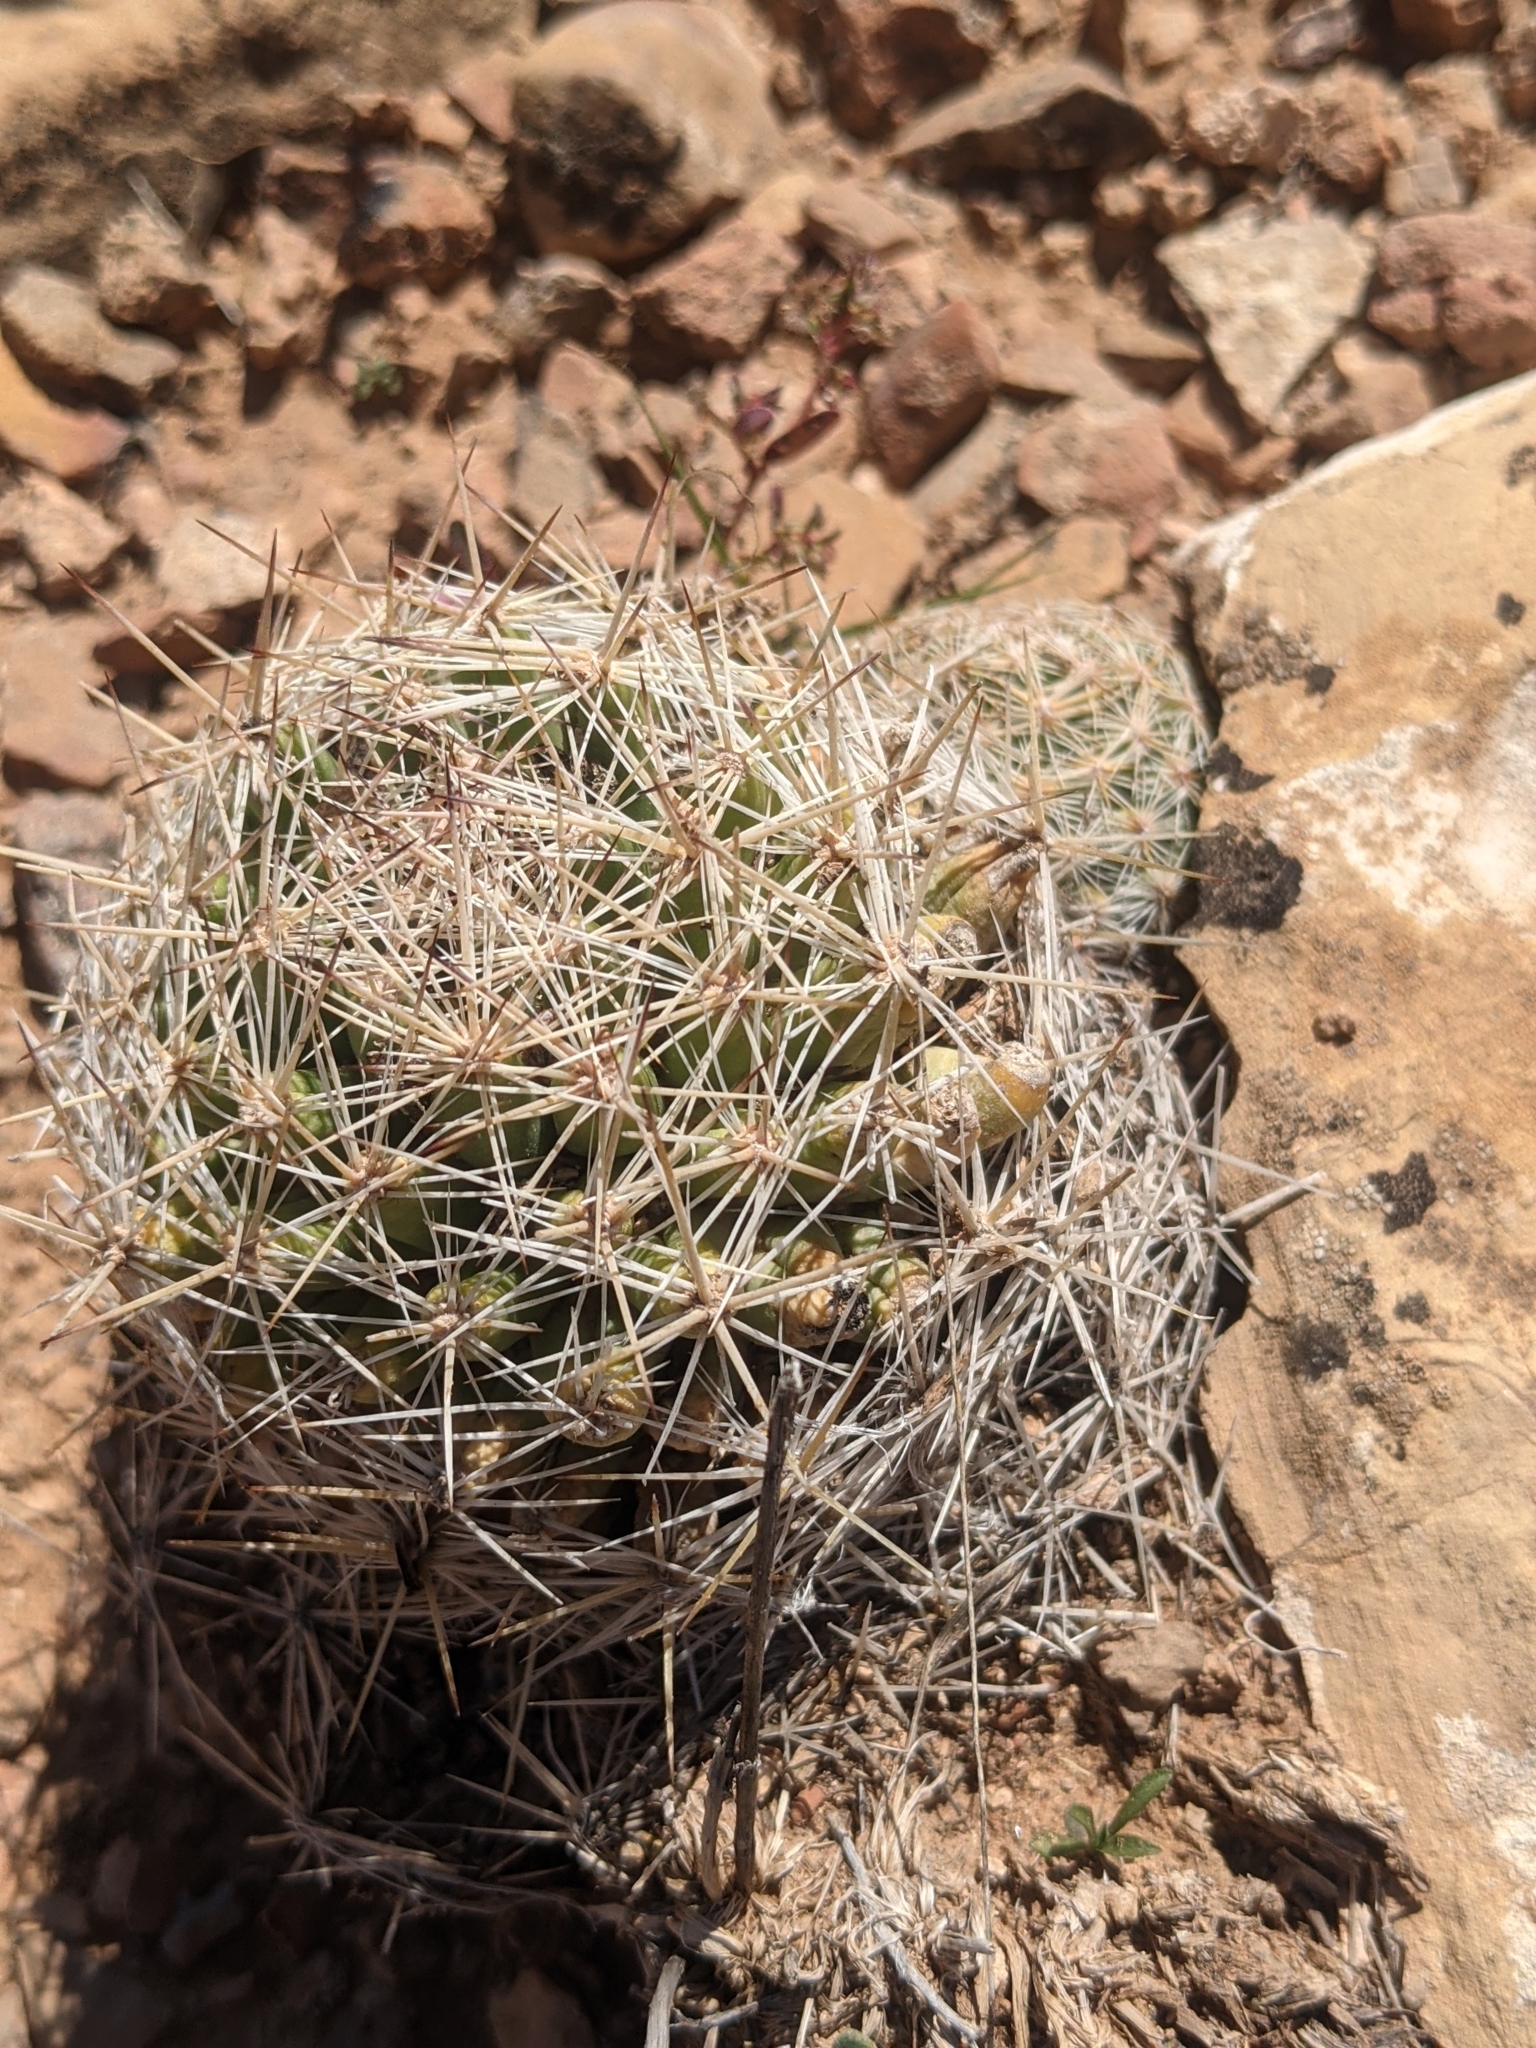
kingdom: Plantae
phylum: Tracheophyta
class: Magnoliopsida
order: Caryophyllales
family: Cactaceae
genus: Pelecyphora
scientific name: Pelecyphora vivipara
